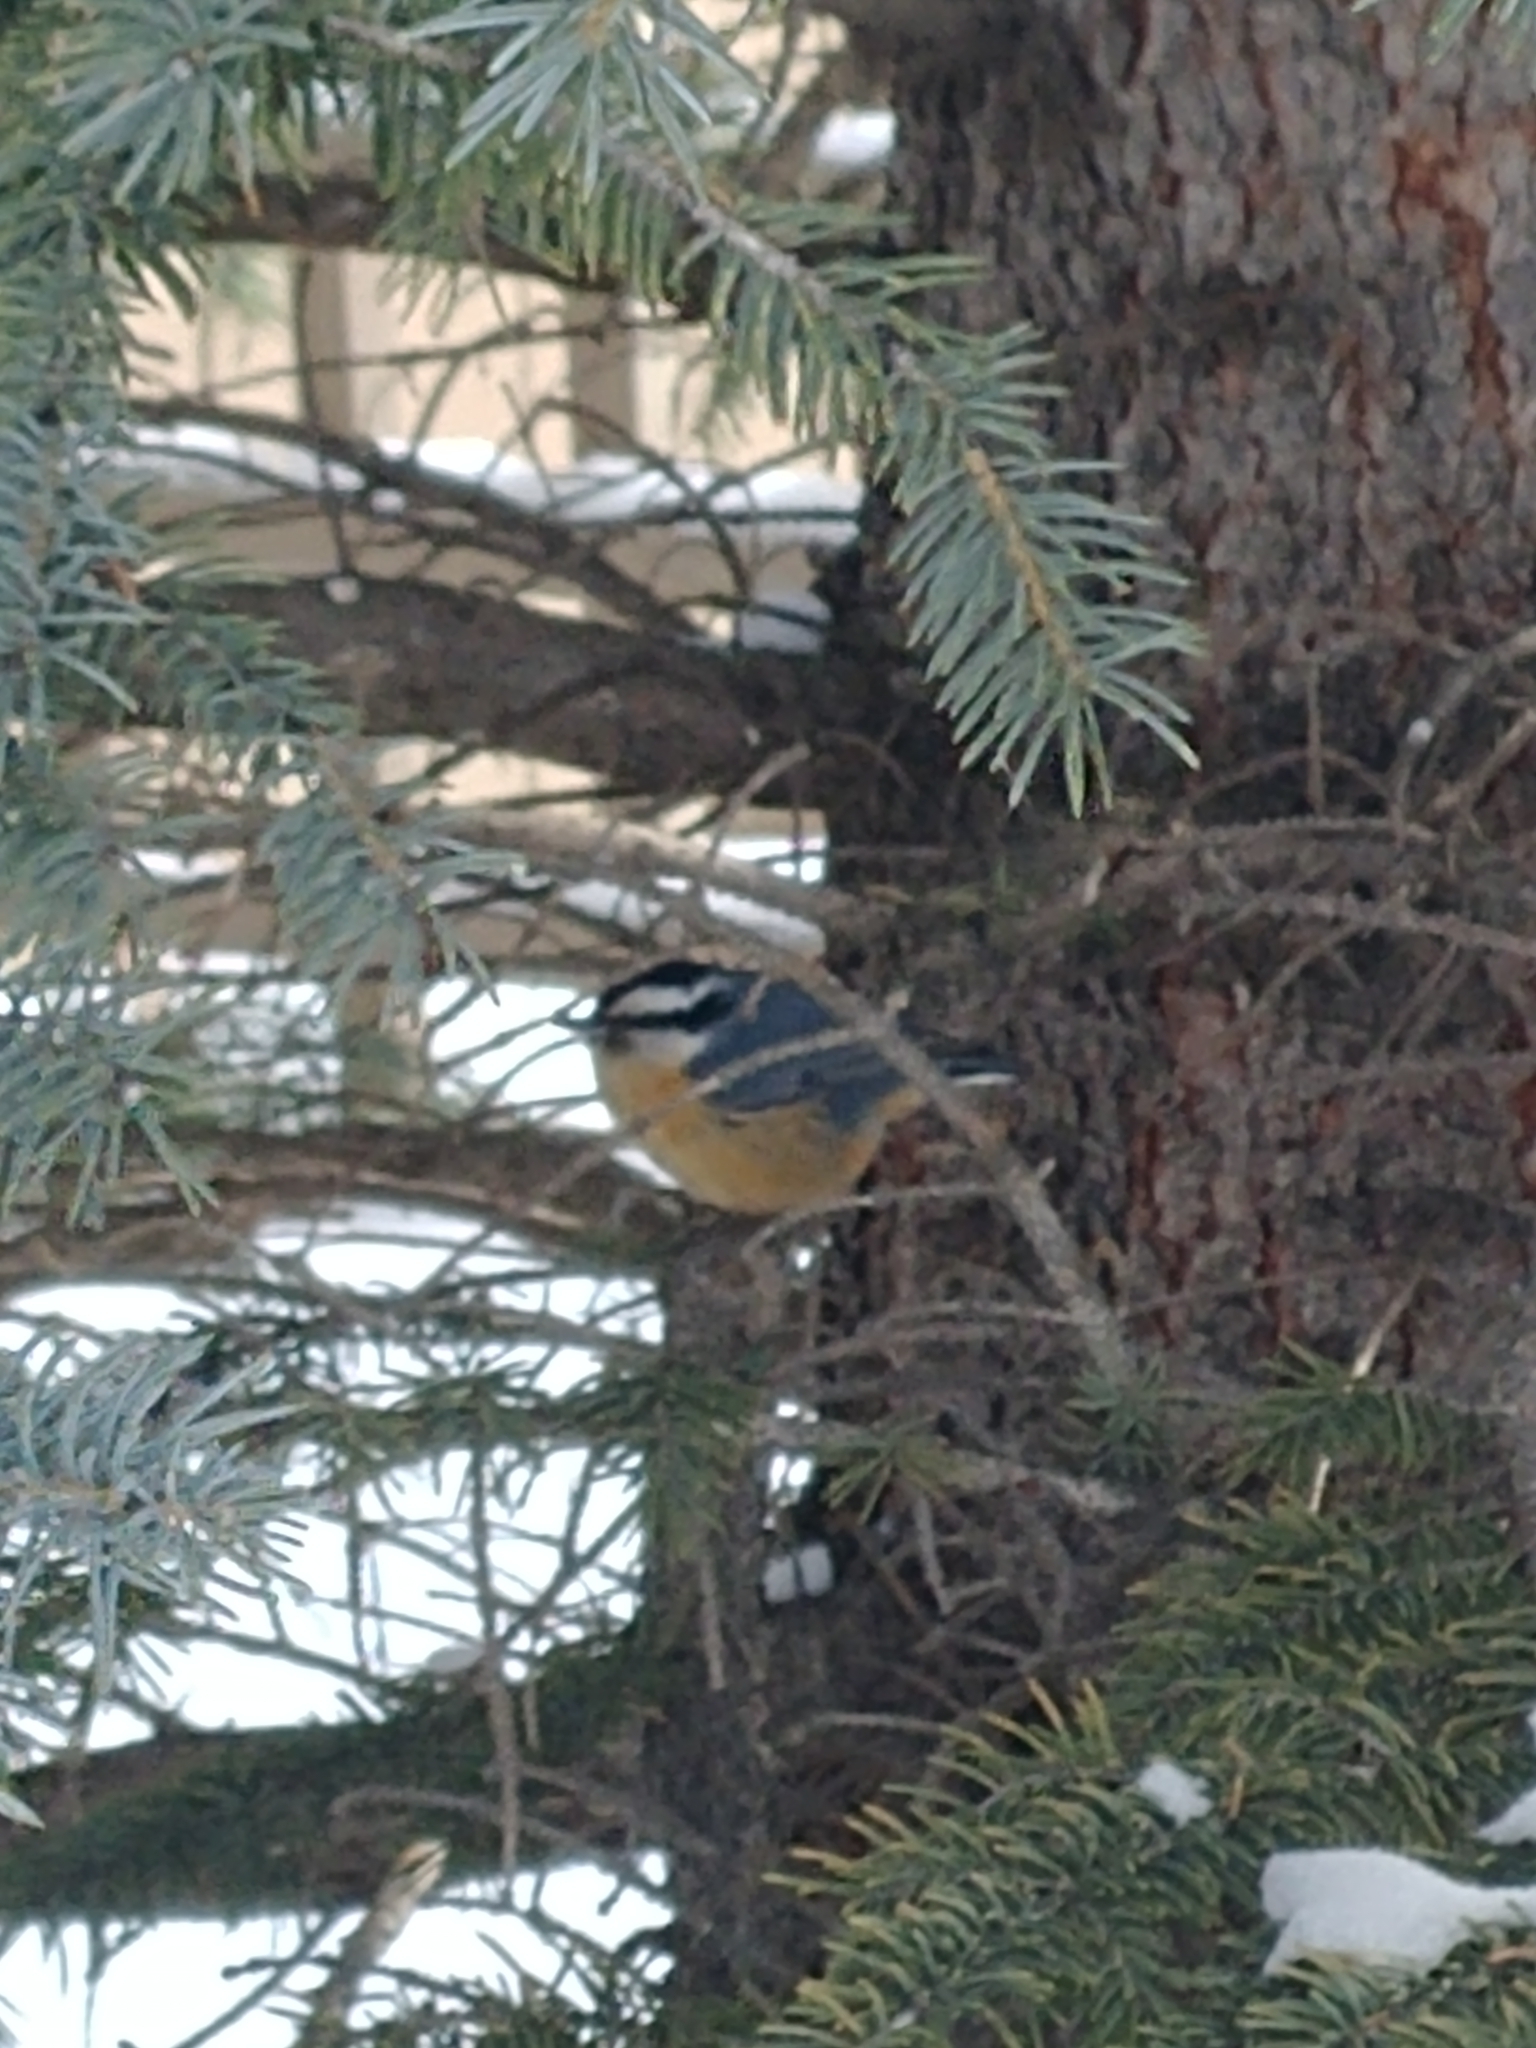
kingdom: Animalia
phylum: Chordata
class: Aves
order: Passeriformes
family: Sittidae
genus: Sitta
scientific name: Sitta canadensis
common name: Red-breasted nuthatch
